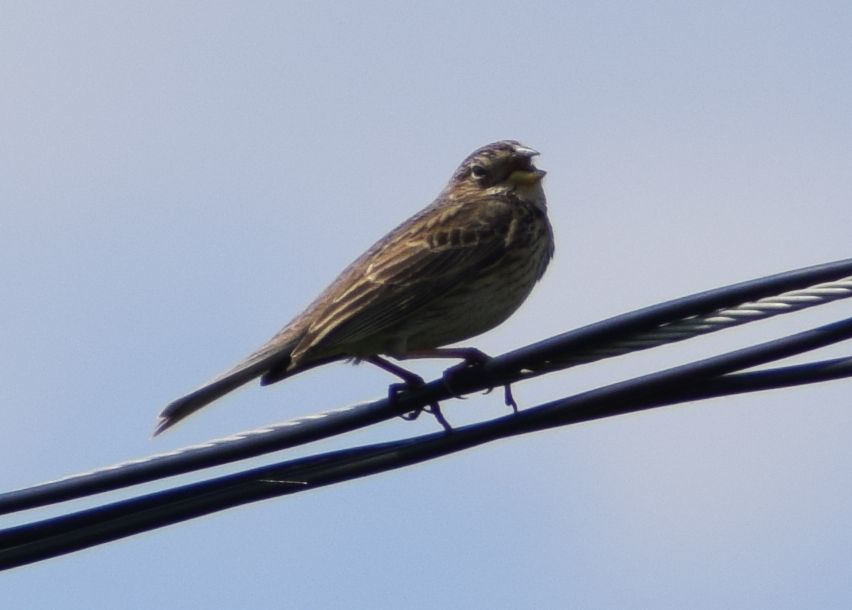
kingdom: Animalia
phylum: Chordata
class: Aves
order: Passeriformes
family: Emberizidae
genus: Emberiza
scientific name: Emberiza calandra
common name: Corn bunting
